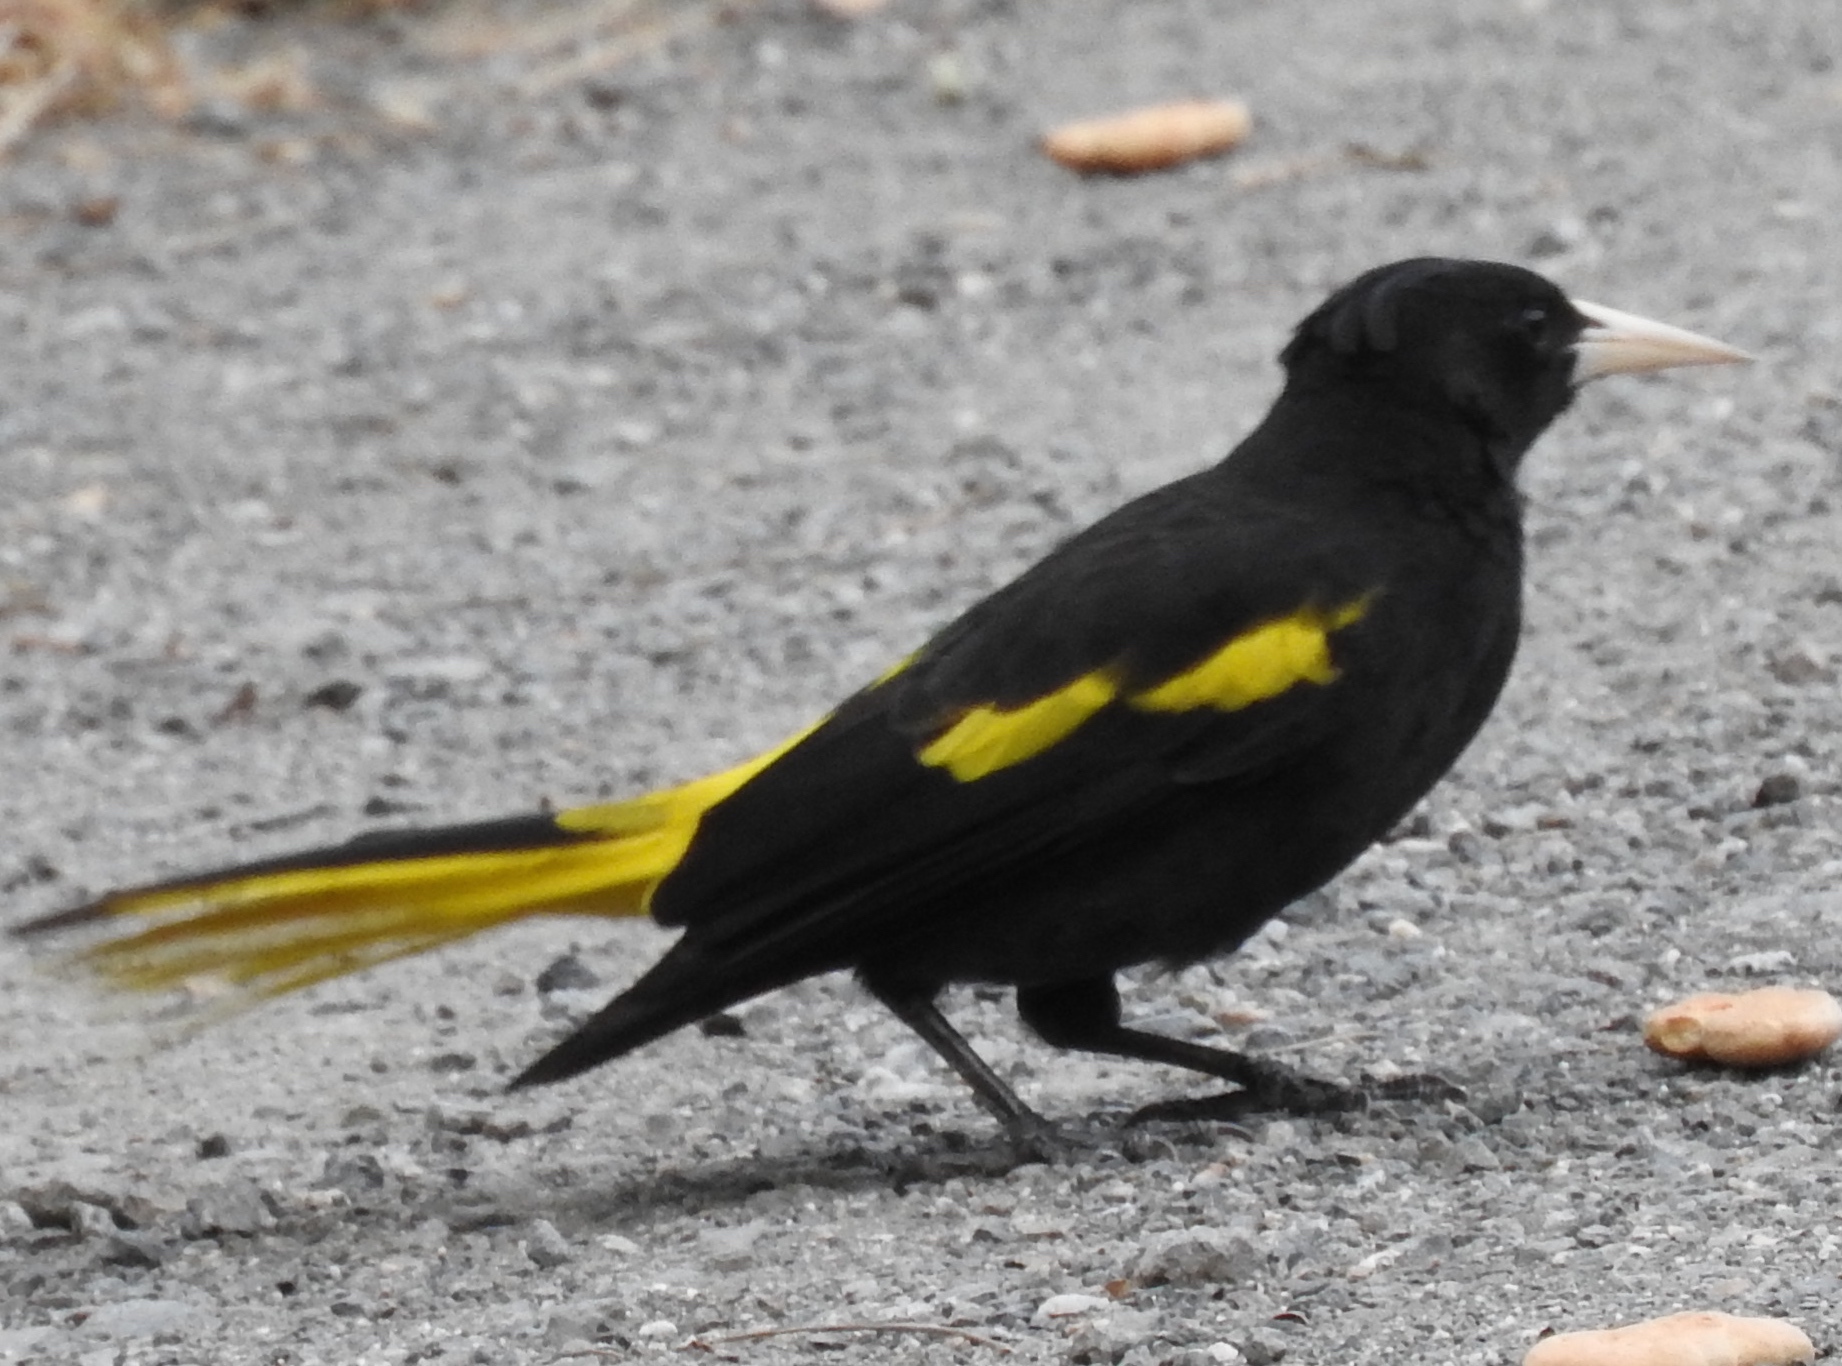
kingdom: Animalia
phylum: Chordata
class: Aves
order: Passeriformes
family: Icteridae
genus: Cacicus
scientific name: Cacicus melanicterus
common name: Yellow-winged cacique
